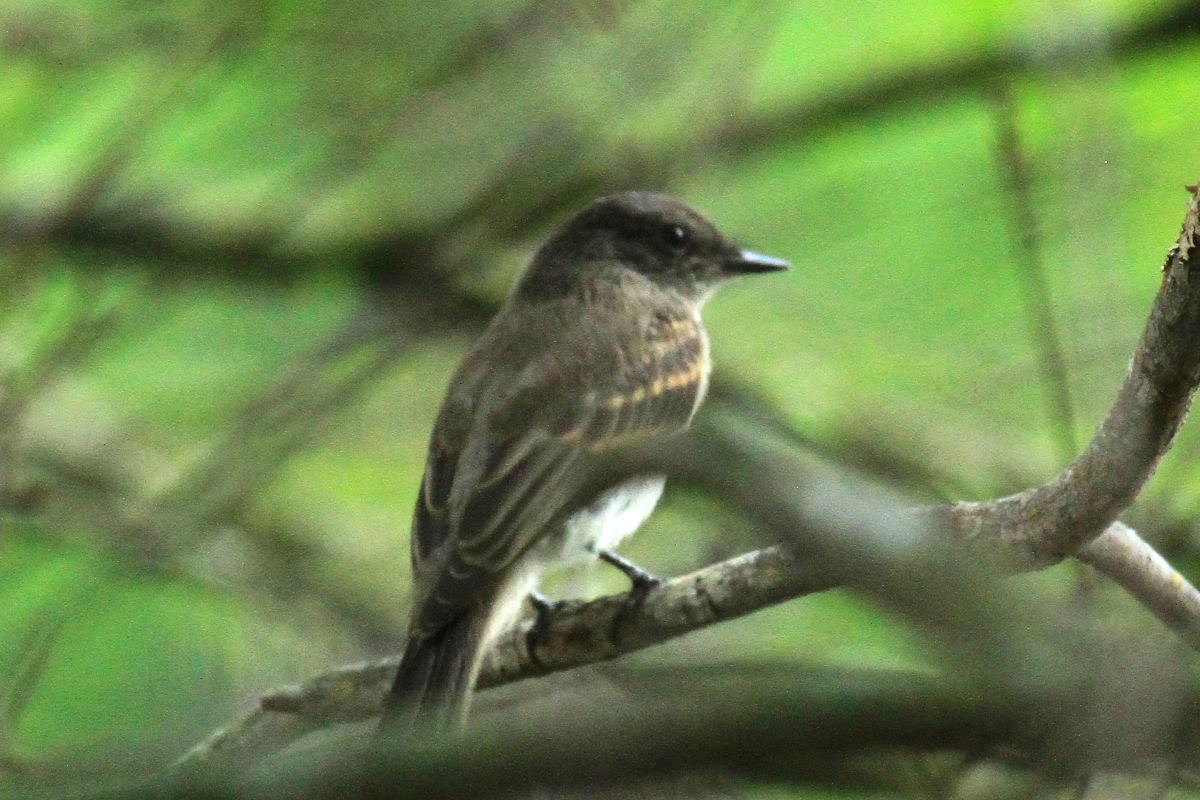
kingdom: Animalia
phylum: Chordata
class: Aves
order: Passeriformes
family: Tyrannidae
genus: Sayornis
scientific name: Sayornis phoebe
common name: Eastern phoebe
